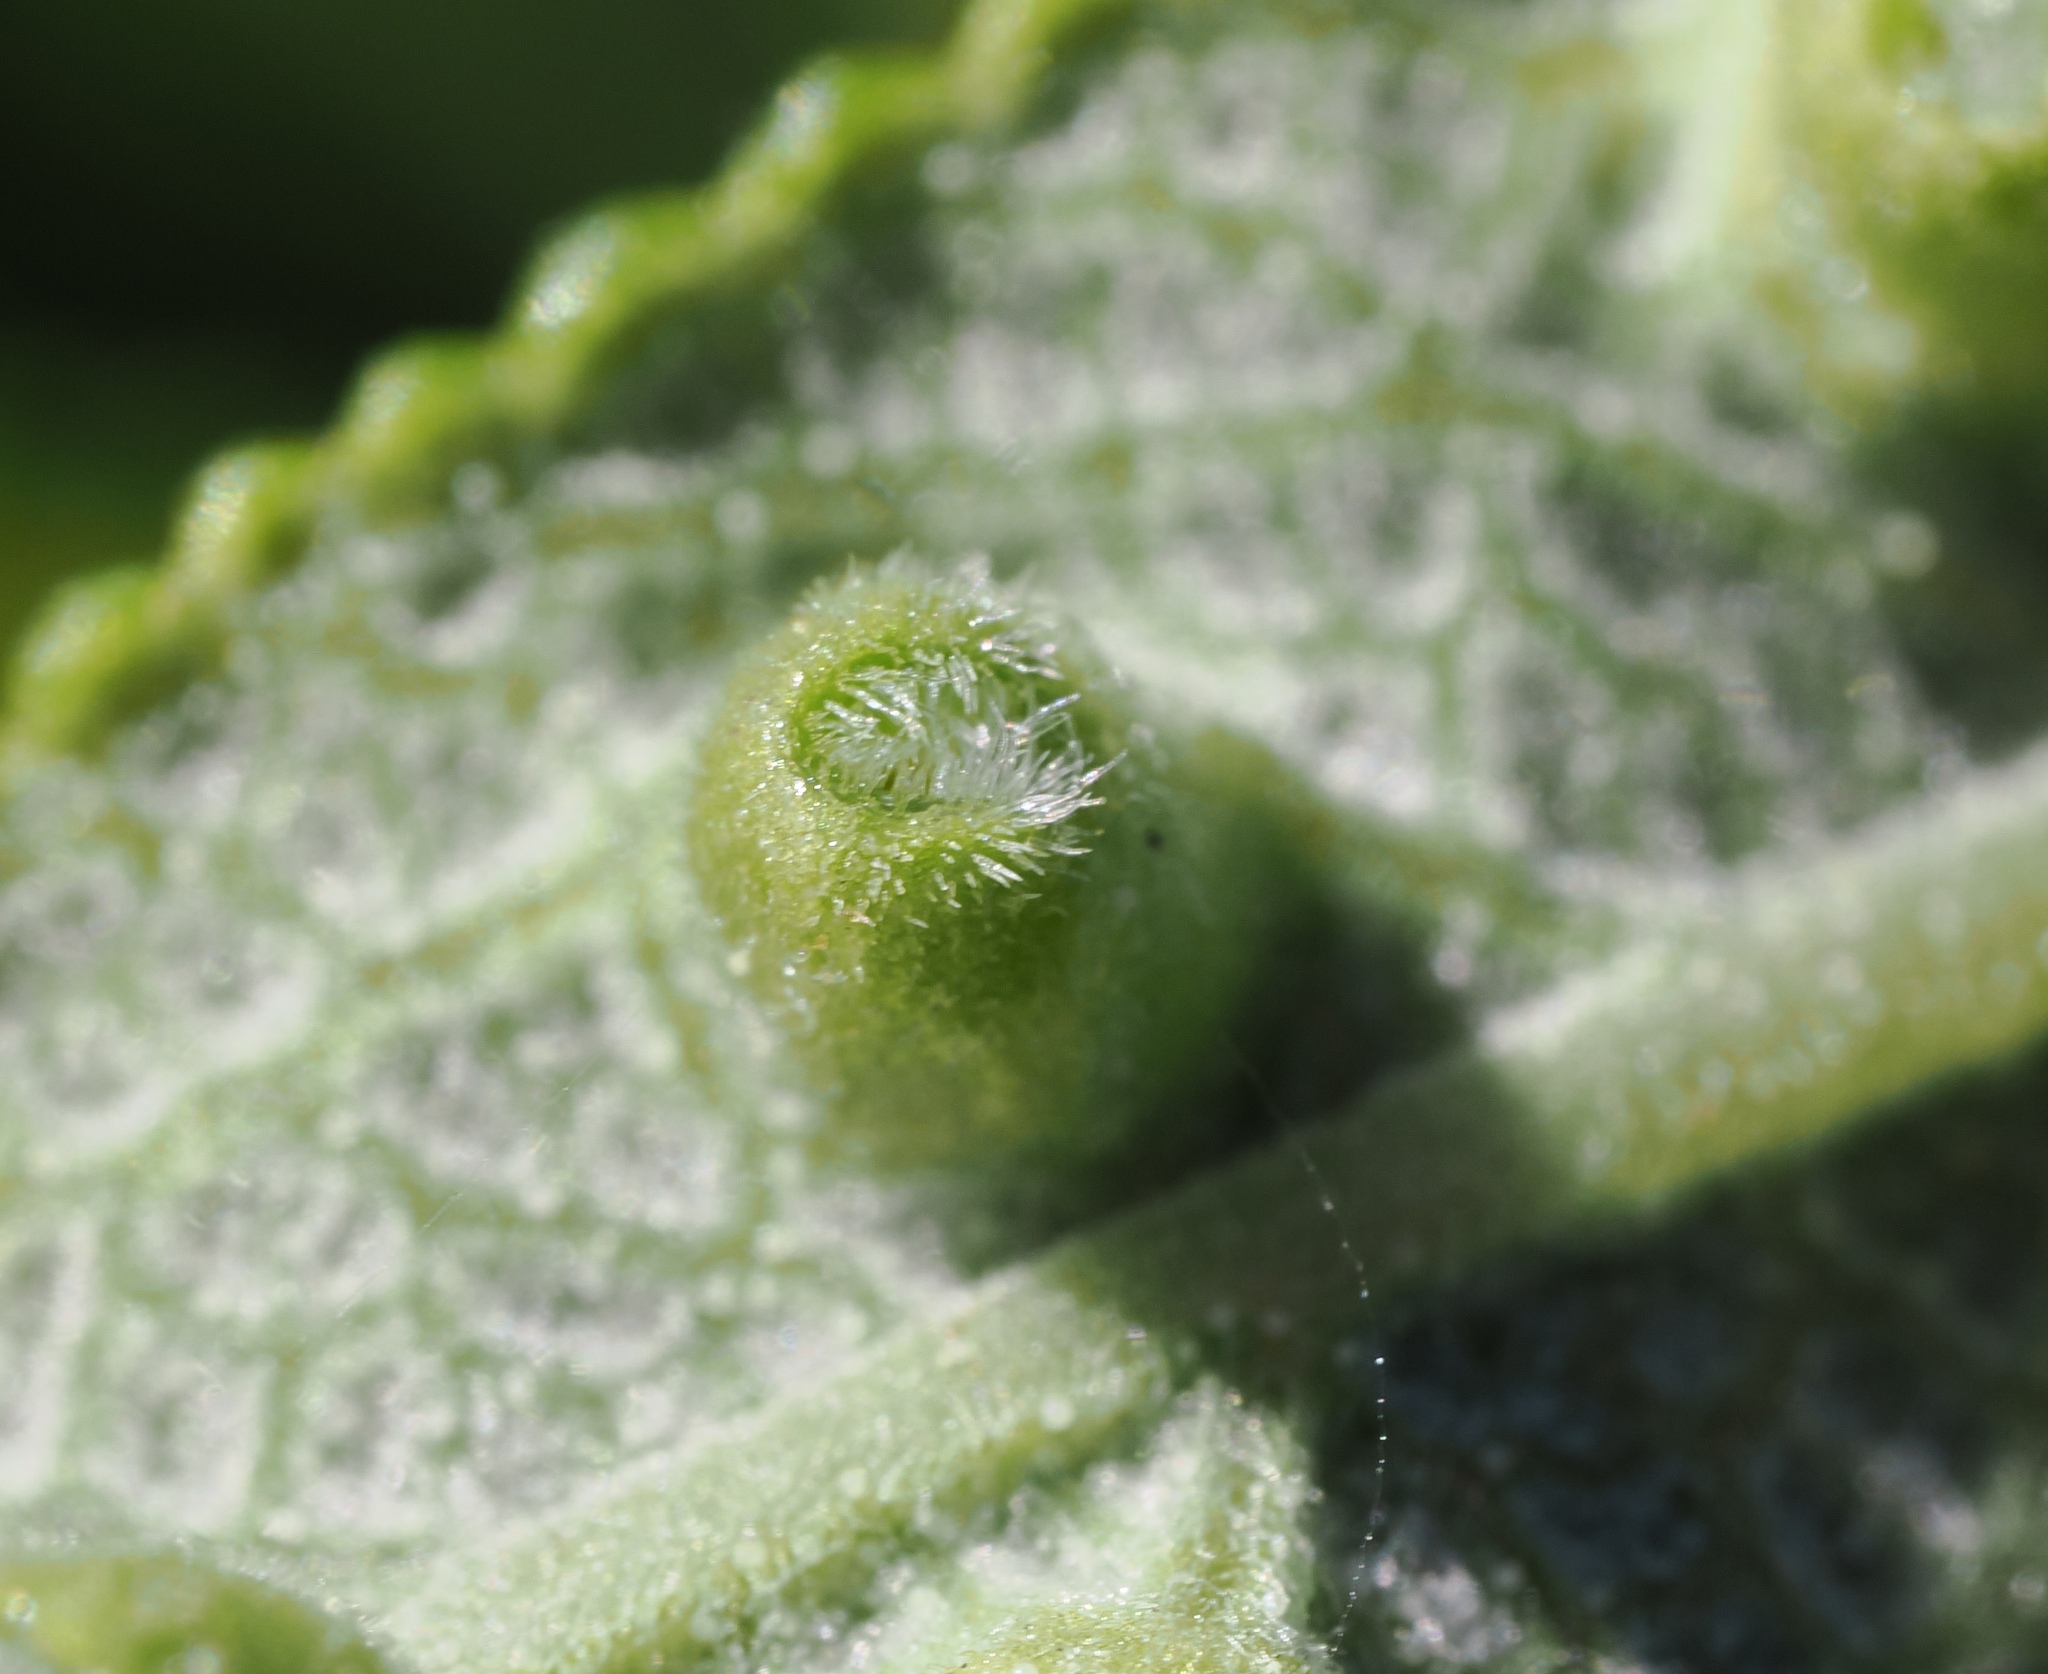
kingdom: Animalia
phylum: Arthropoda
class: Insecta
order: Diptera
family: Cecidomyiidae
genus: Rhopalomyia
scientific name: Rhopalomyia audibertiae
